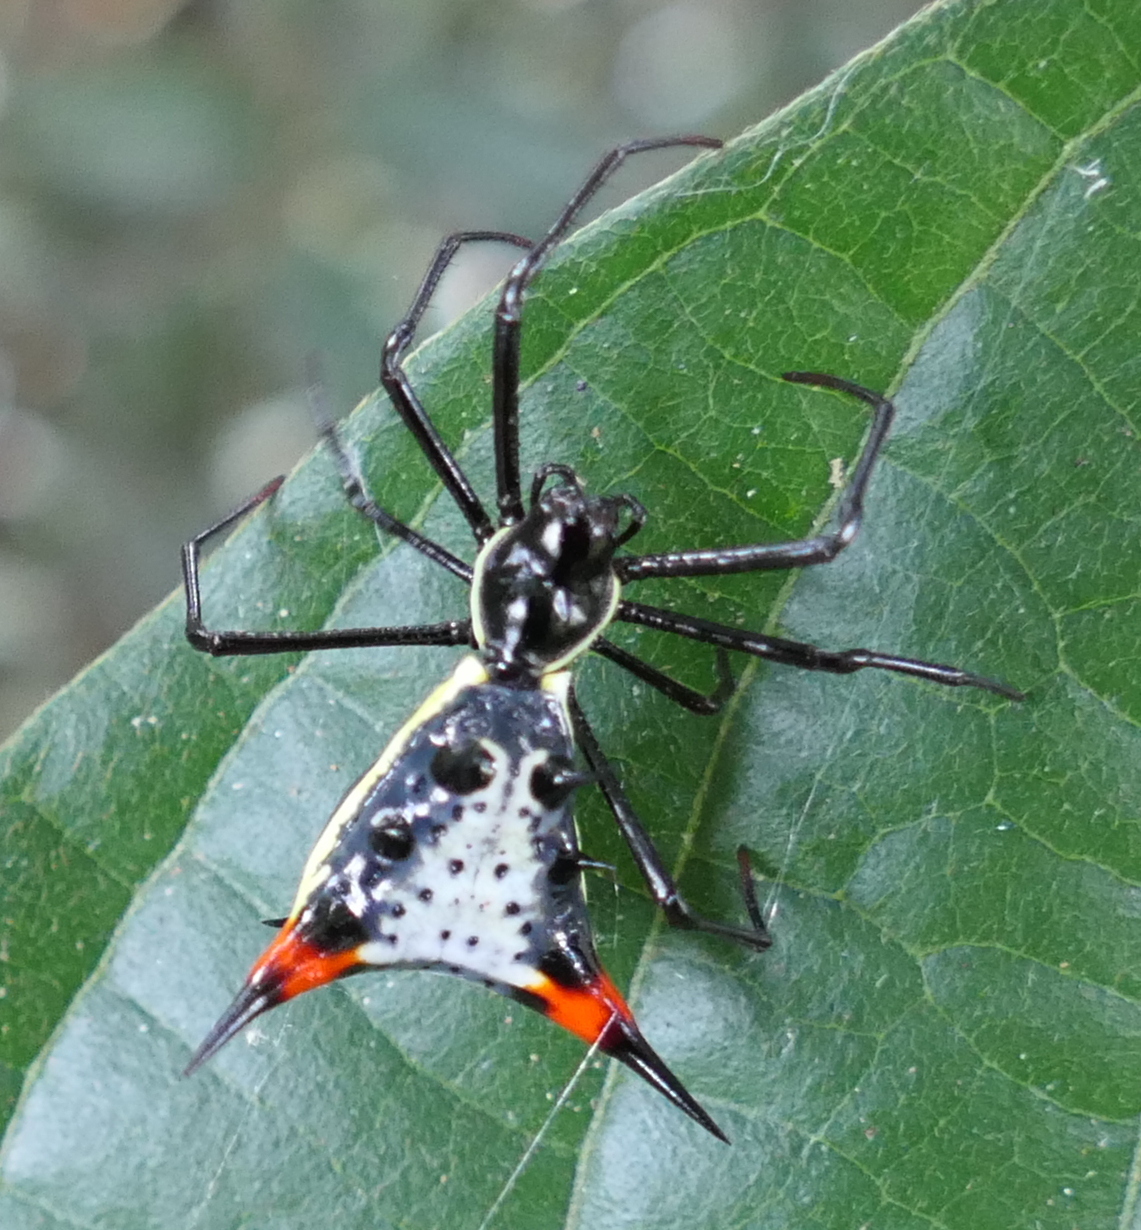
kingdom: Animalia
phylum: Arthropoda
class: Arachnida
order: Araneae
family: Araneidae
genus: Micrathena
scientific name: Micrathena schreibersi
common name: Orb weavers
